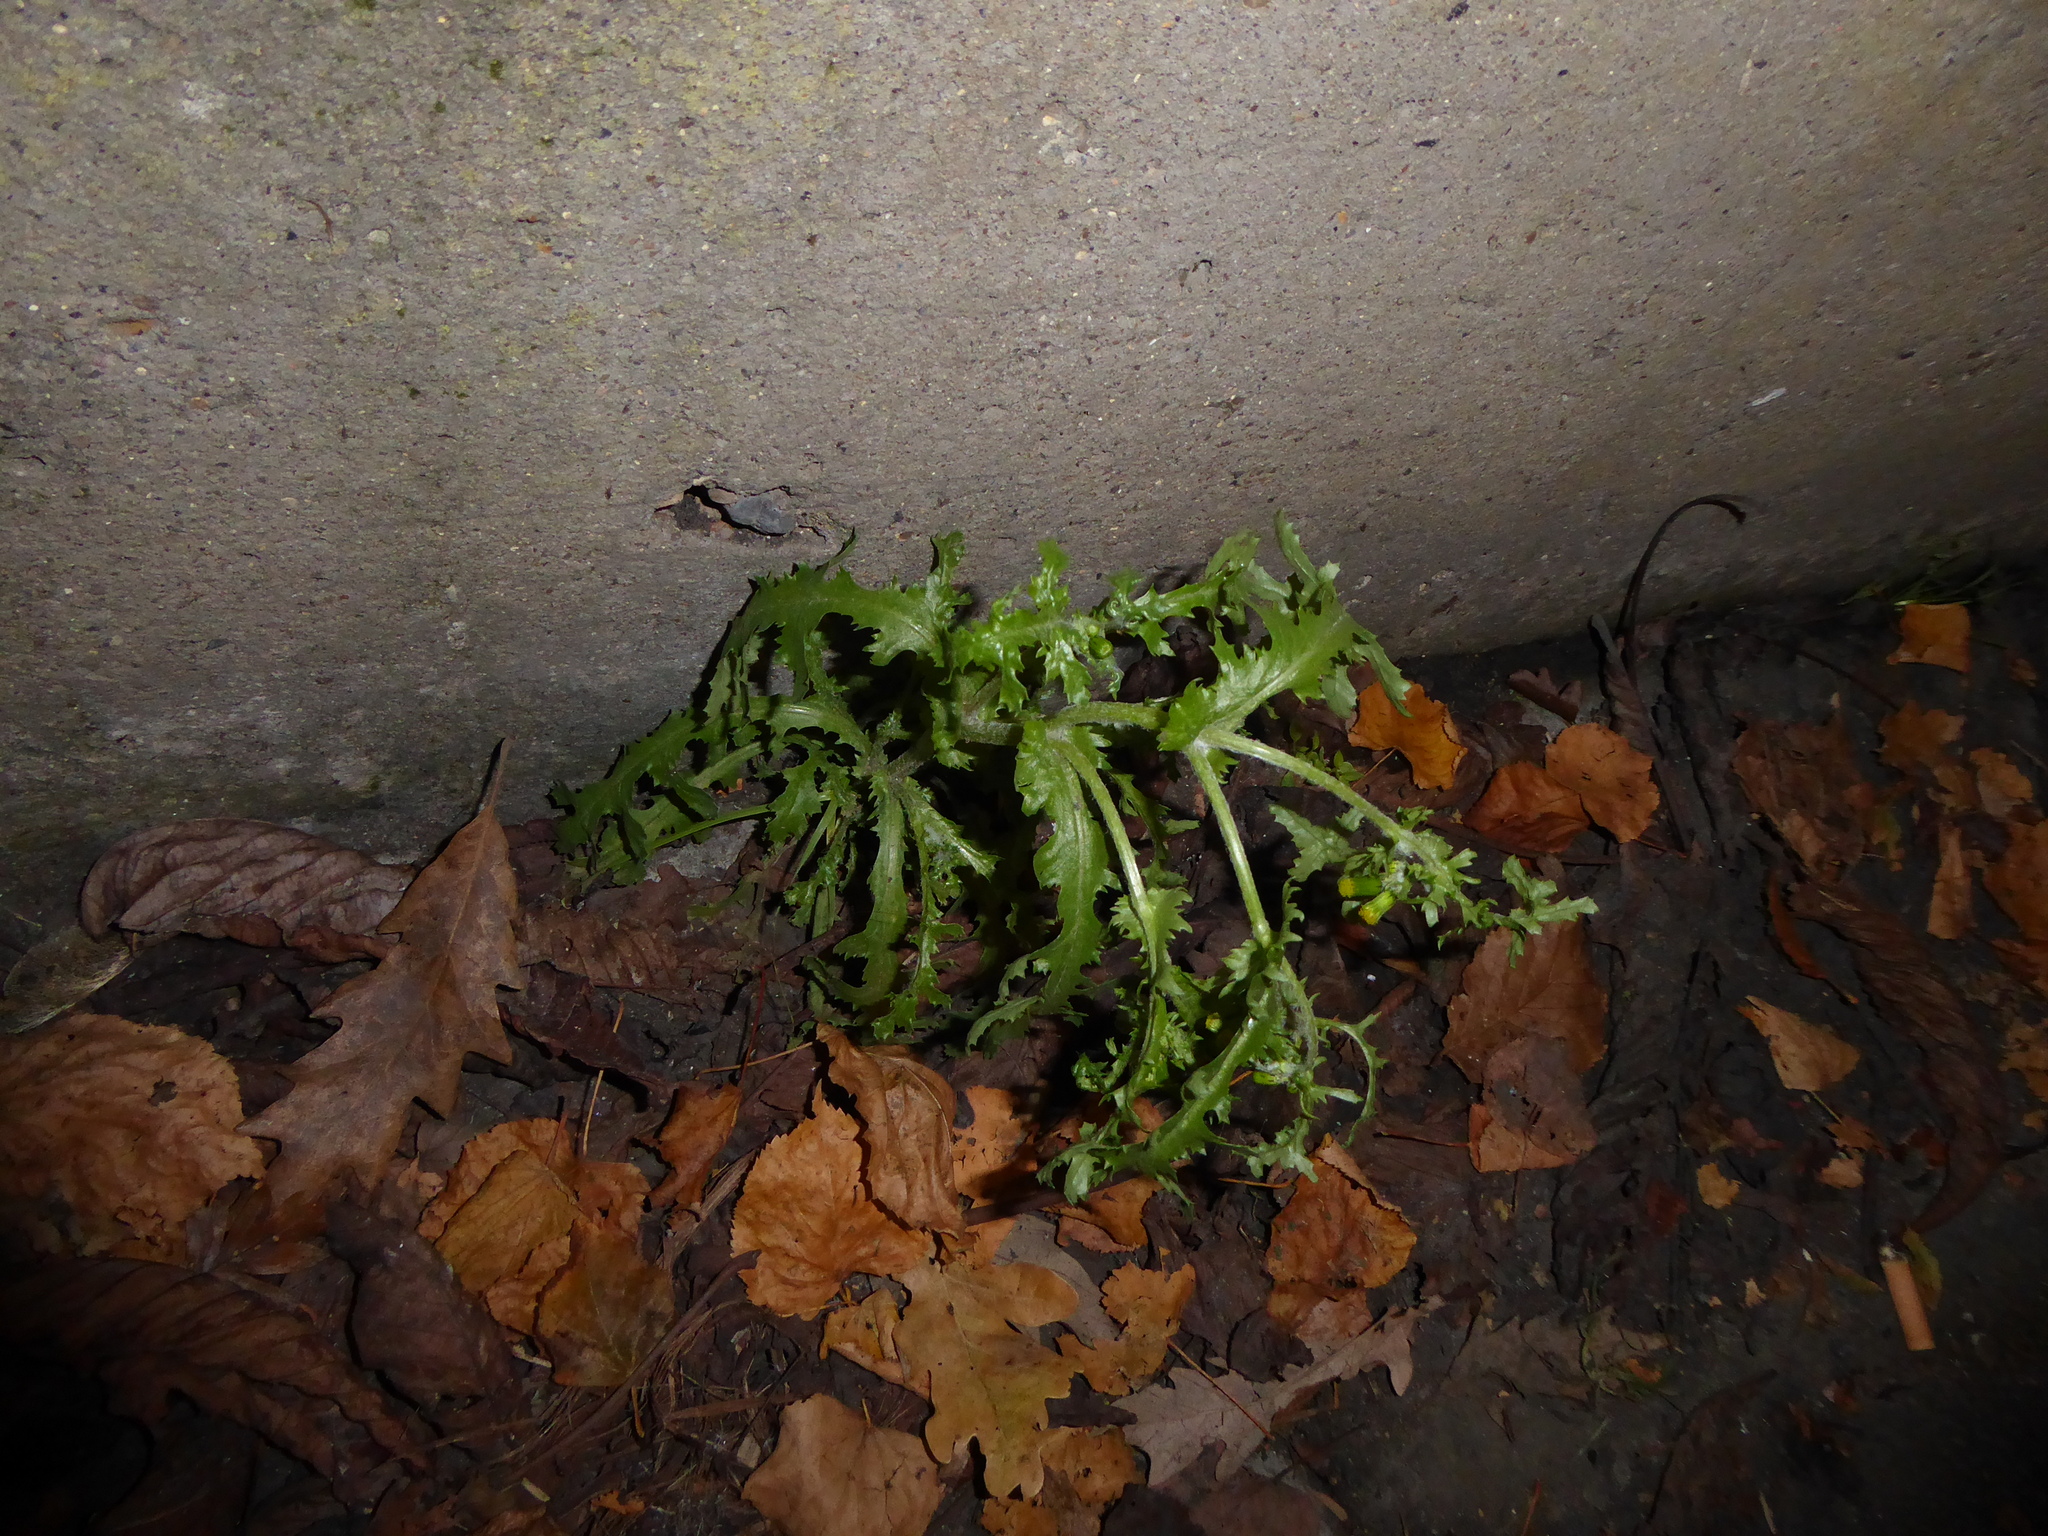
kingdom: Plantae
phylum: Tracheophyta
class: Magnoliopsida
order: Asterales
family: Asteraceae
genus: Senecio
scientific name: Senecio vulgaris
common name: Old-man-in-the-spring
